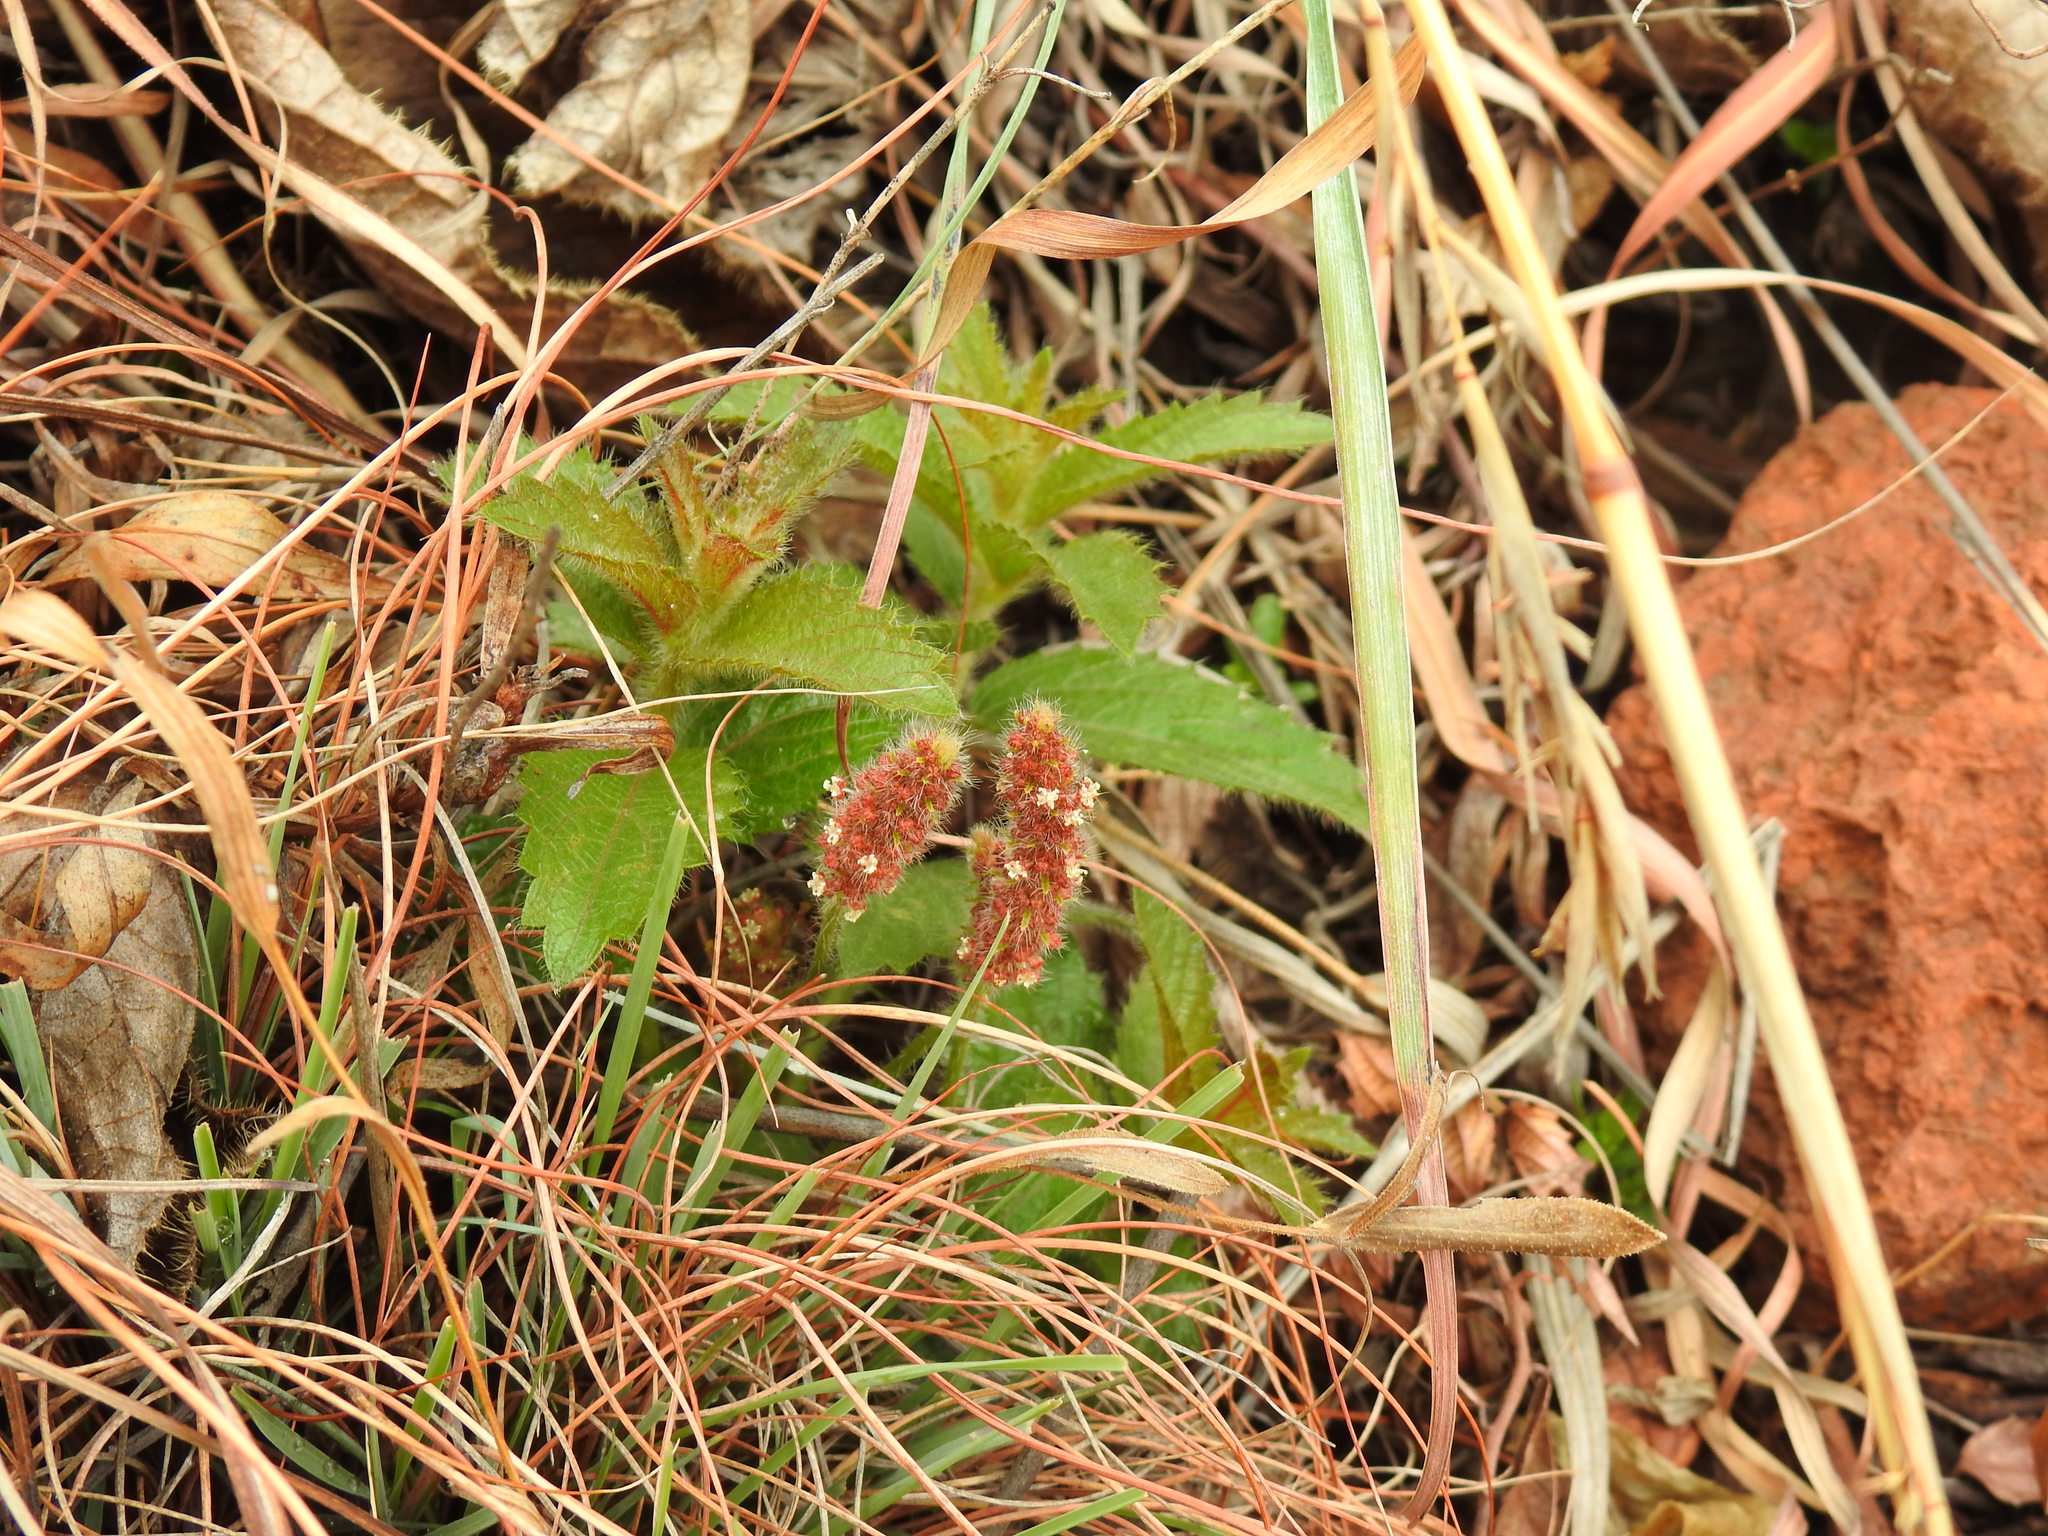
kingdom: Plantae
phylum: Tracheophyta
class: Magnoliopsida
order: Malpighiales
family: Euphorbiaceae
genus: Acalypha
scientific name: Acalypha angustata
